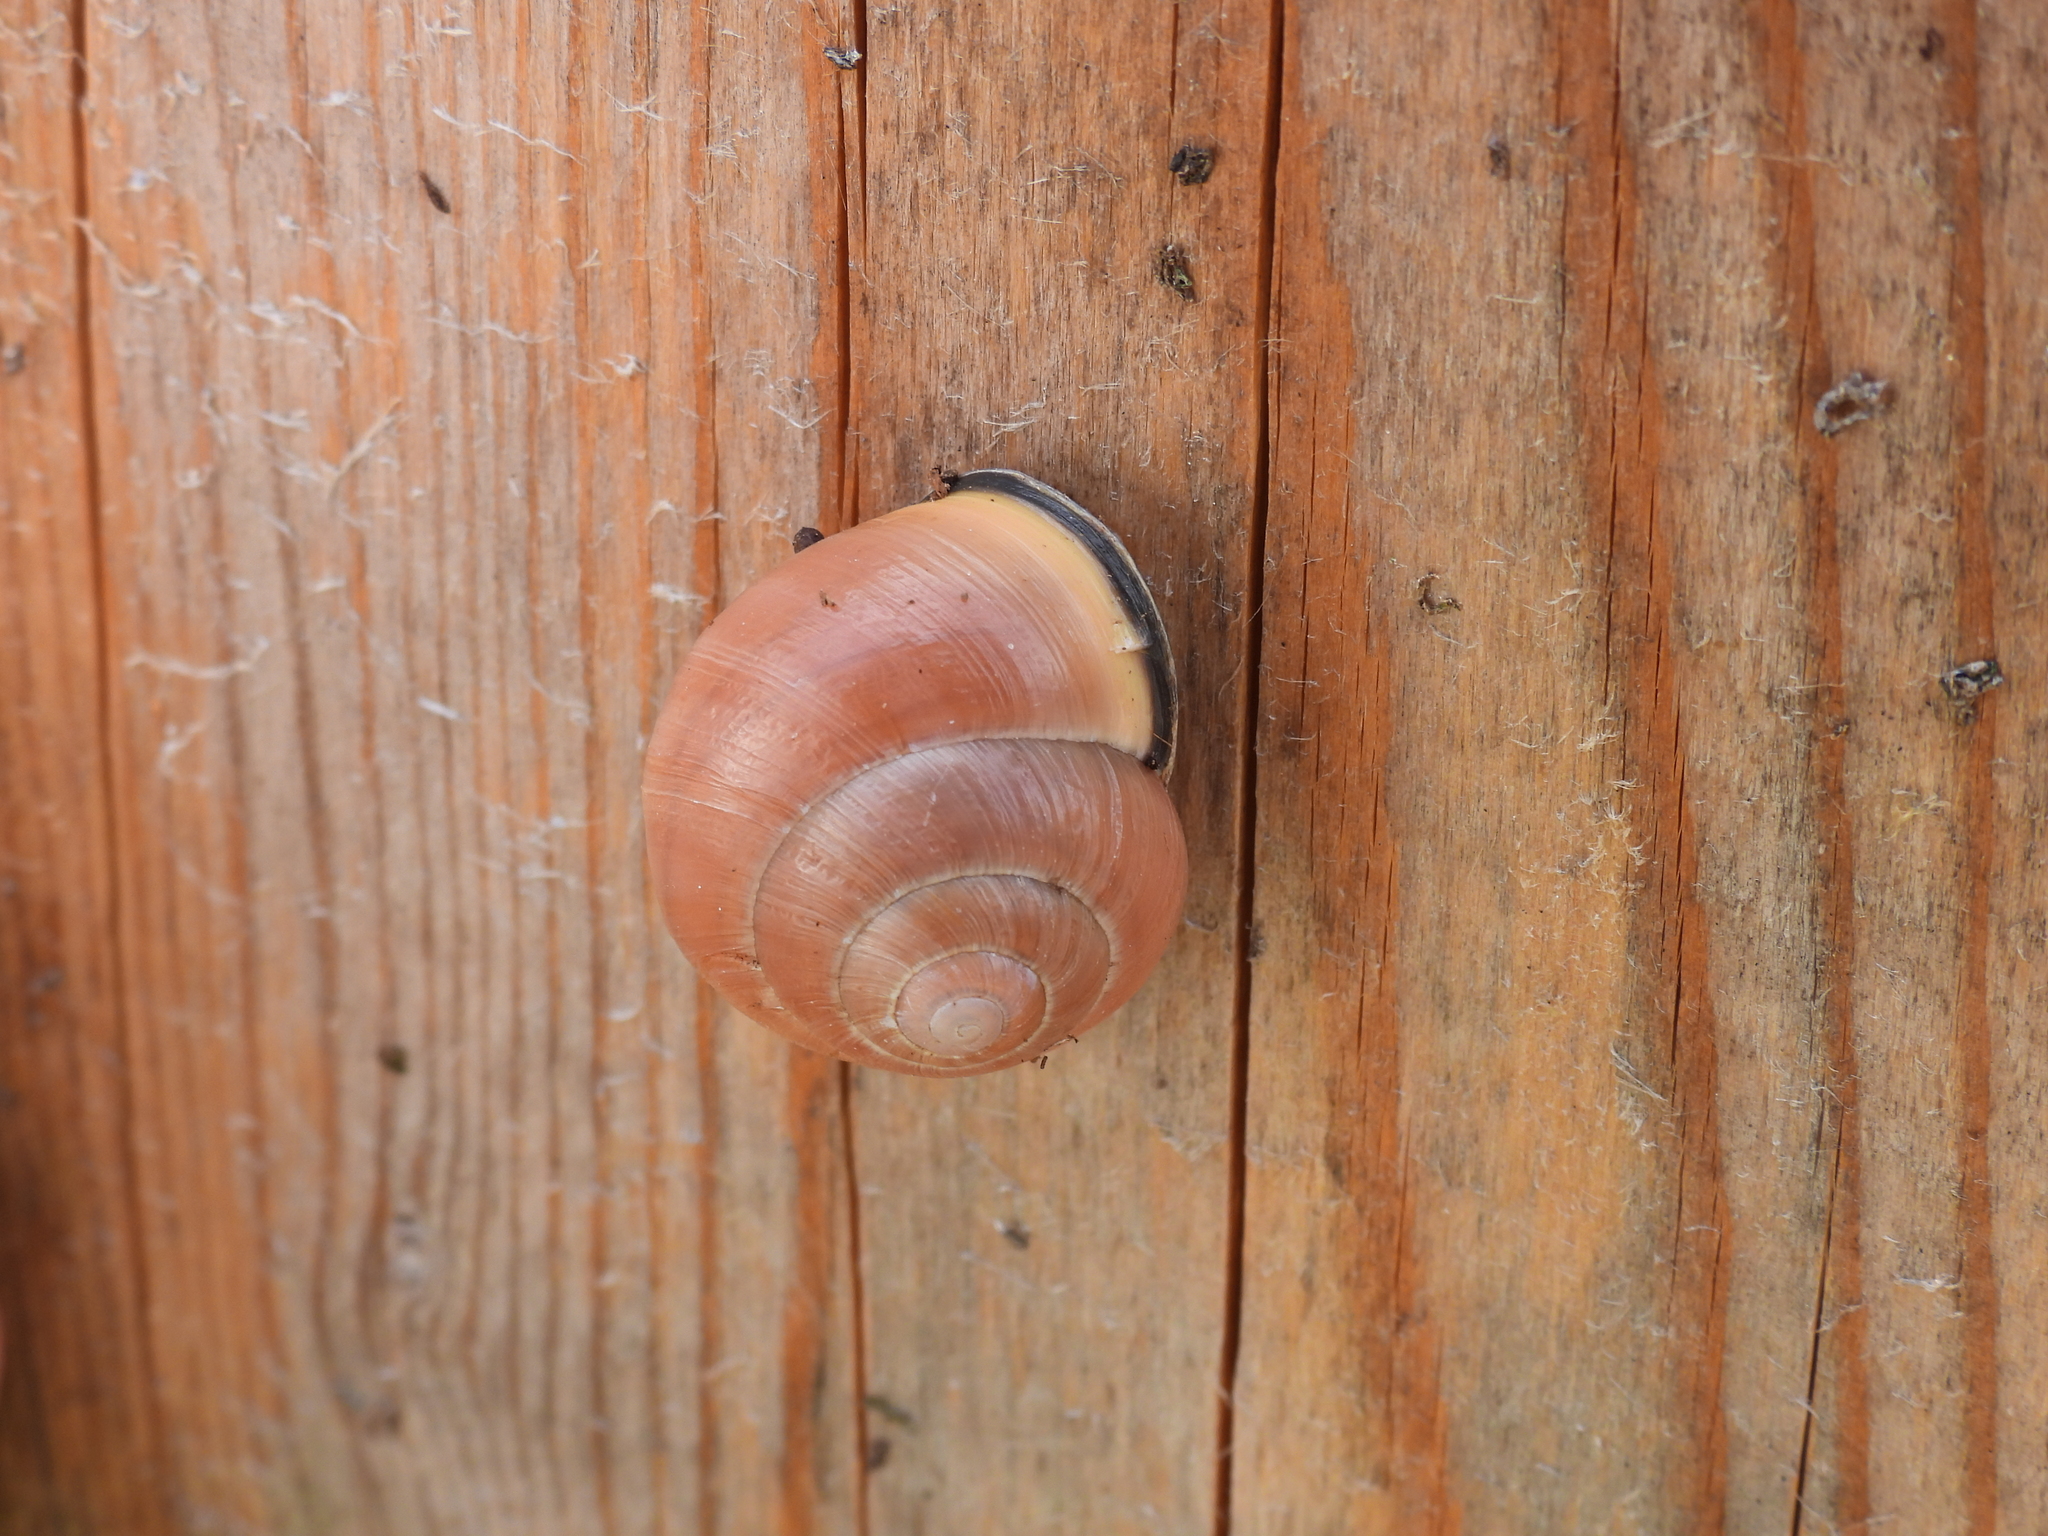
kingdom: Animalia
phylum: Mollusca
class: Gastropoda
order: Stylommatophora
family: Helicidae
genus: Cepaea
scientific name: Cepaea nemoralis
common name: Grovesnail
